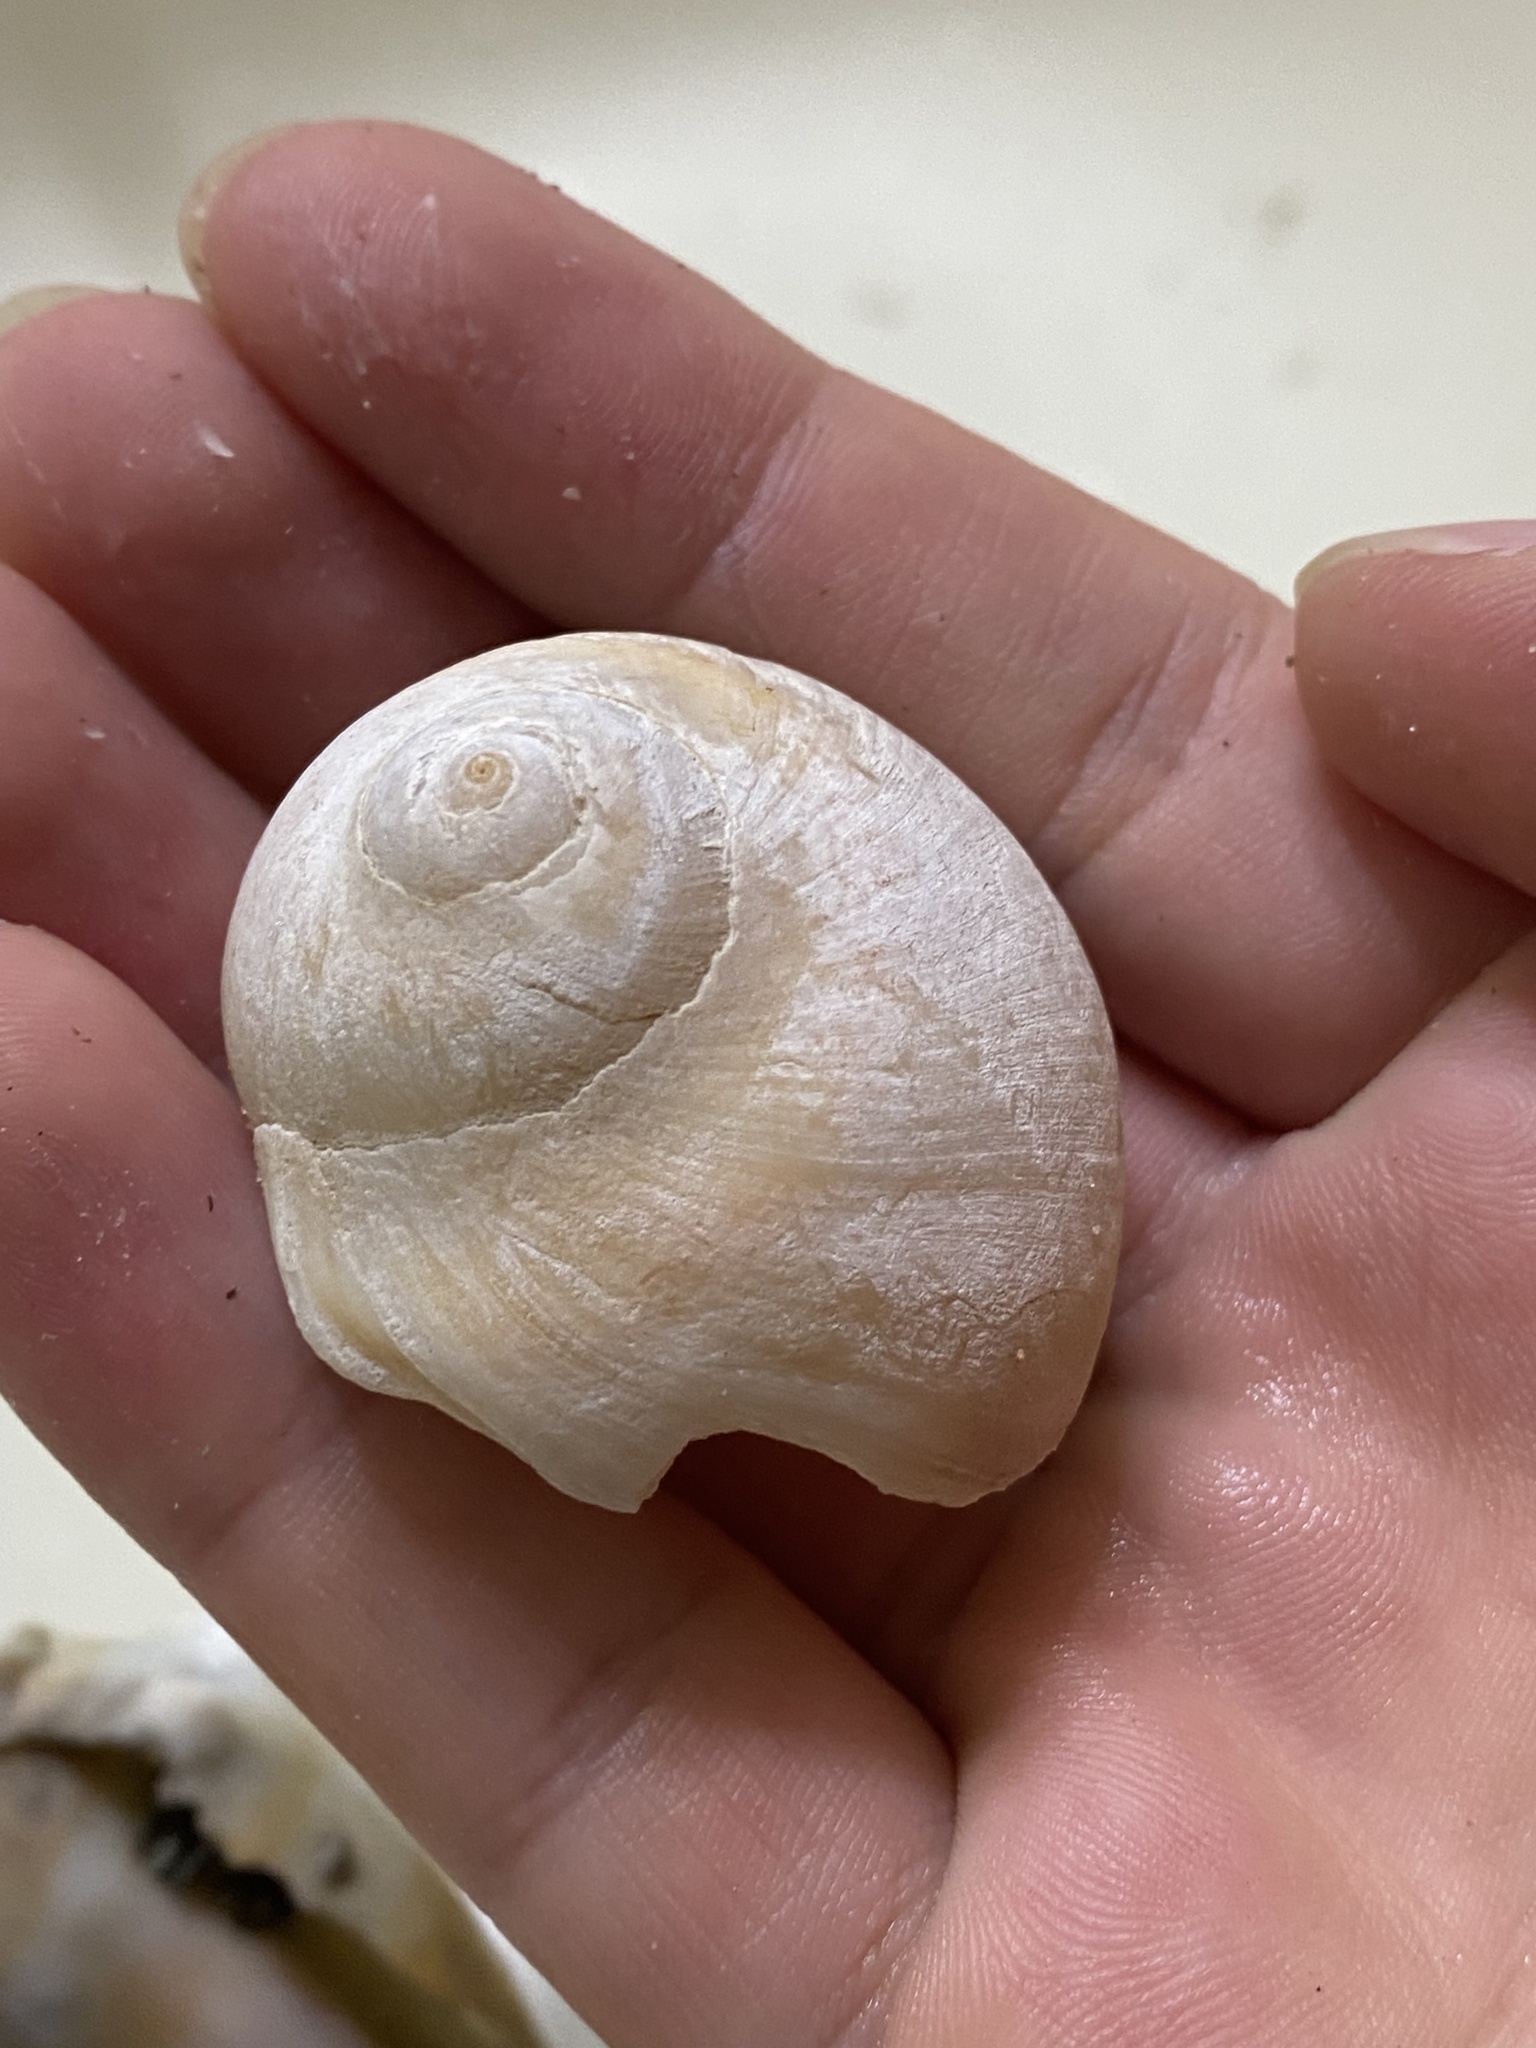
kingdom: Animalia
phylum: Mollusca
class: Gastropoda
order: Littorinimorpha
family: Naticidae
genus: Glossaulax
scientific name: Glossaulax reclusiana
